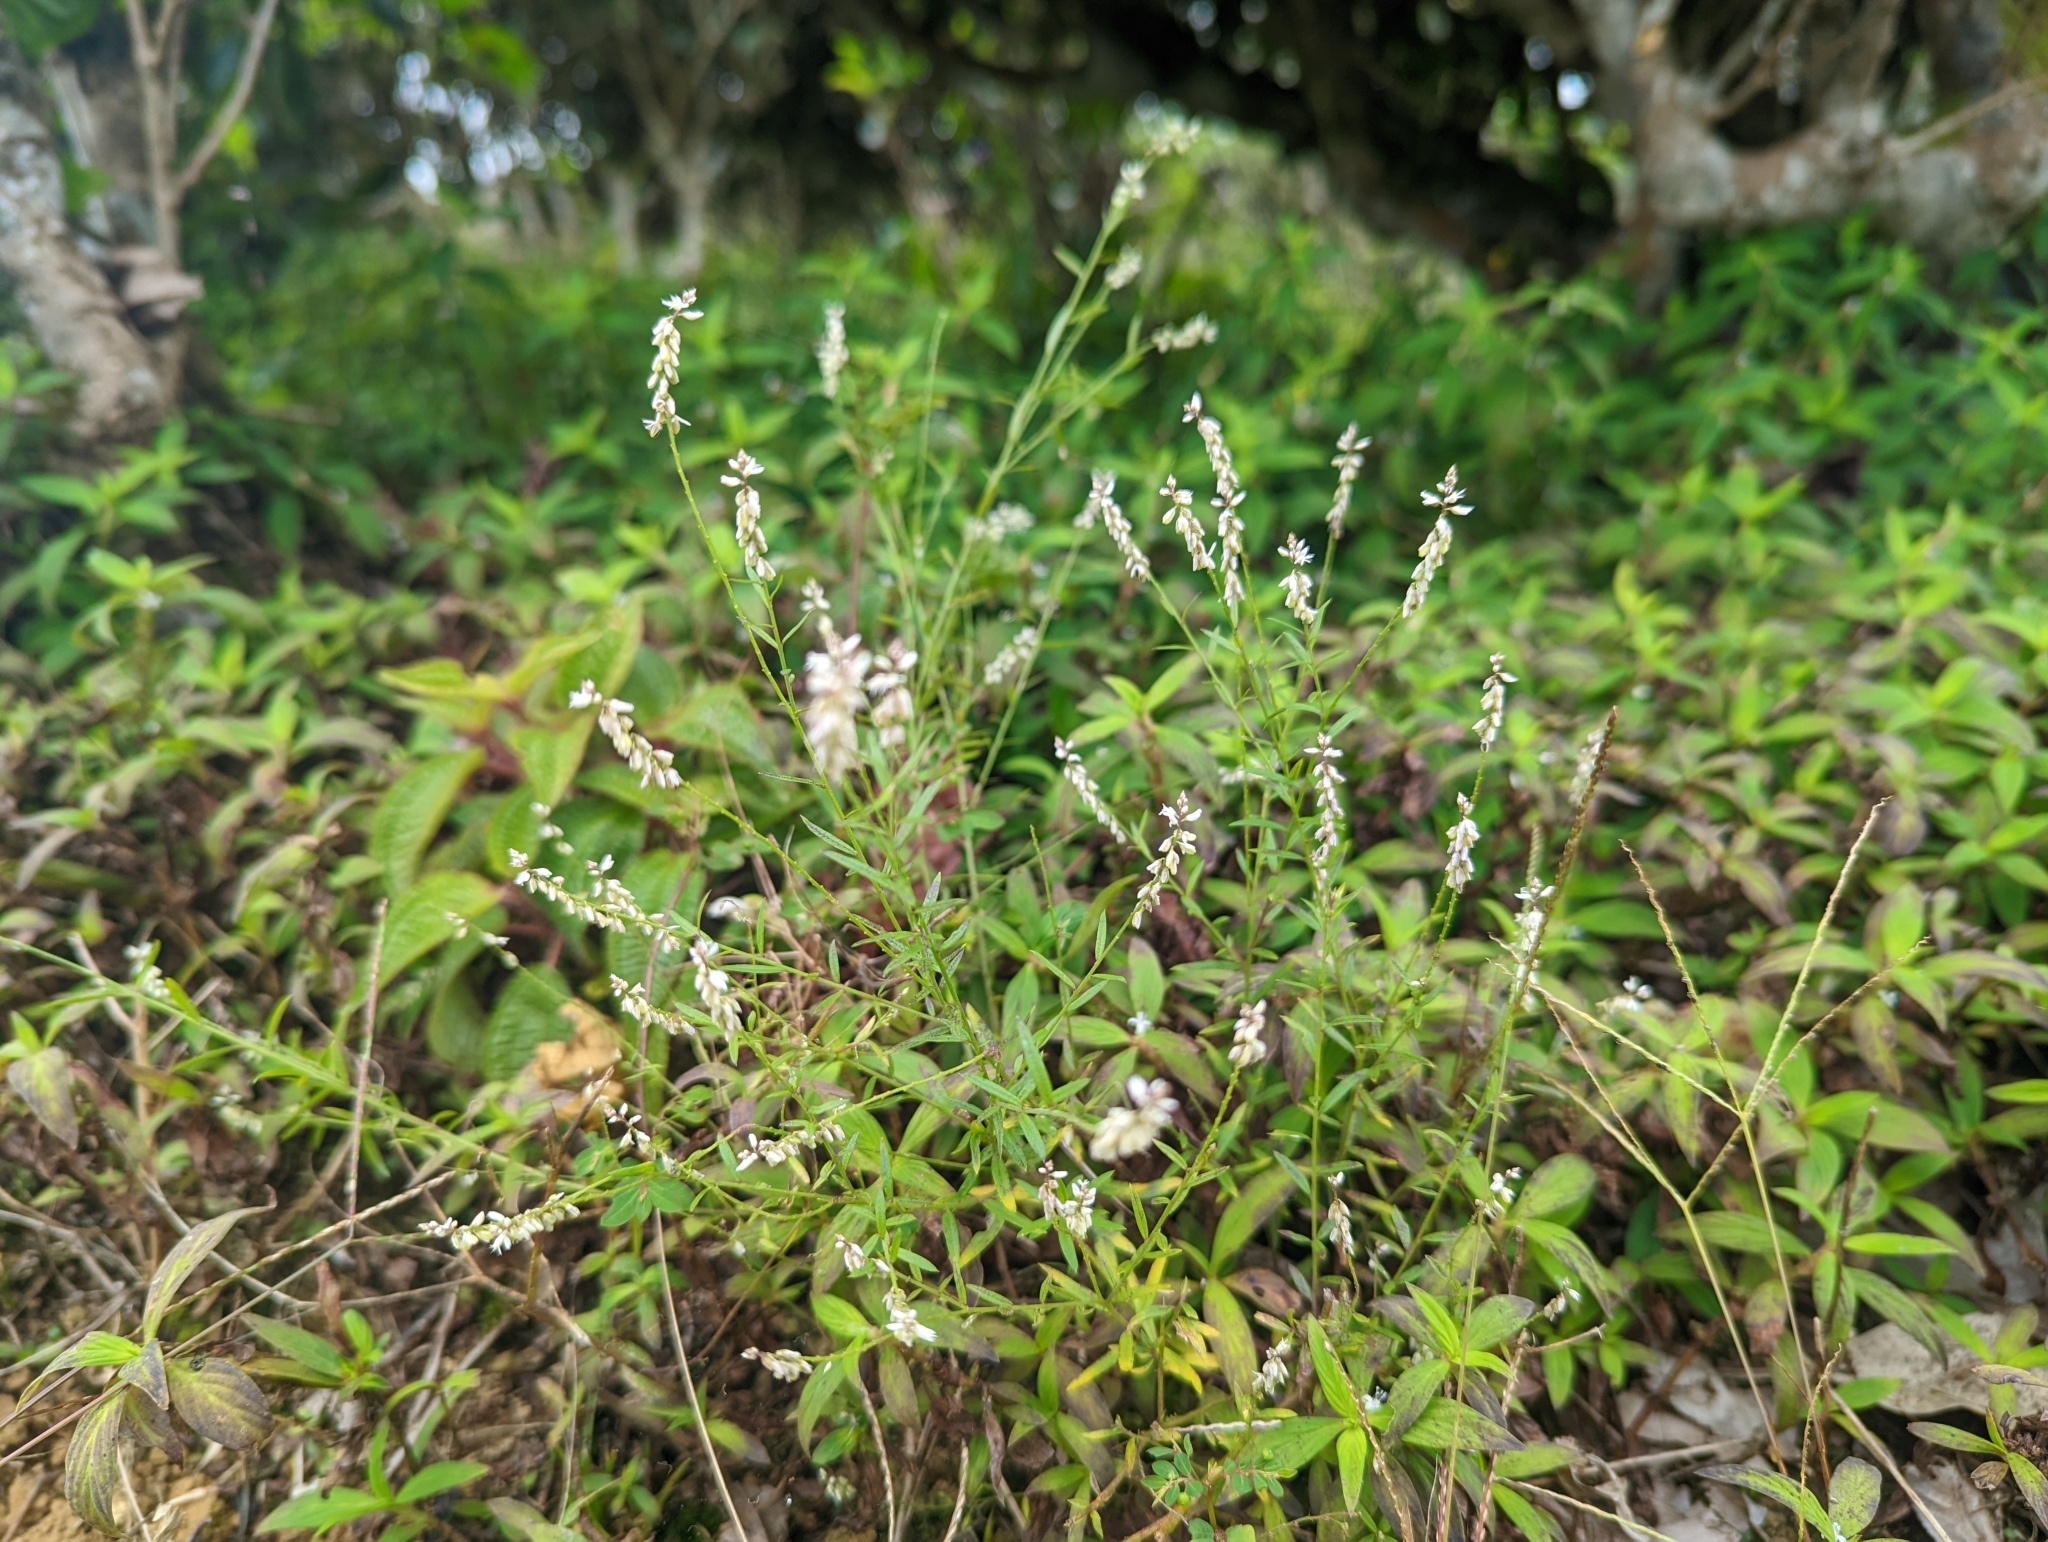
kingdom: Plantae
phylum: Tracheophyta
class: Magnoliopsida
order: Fabales
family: Polygalaceae
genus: Polygala
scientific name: Polygala paniculata
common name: Orosne
